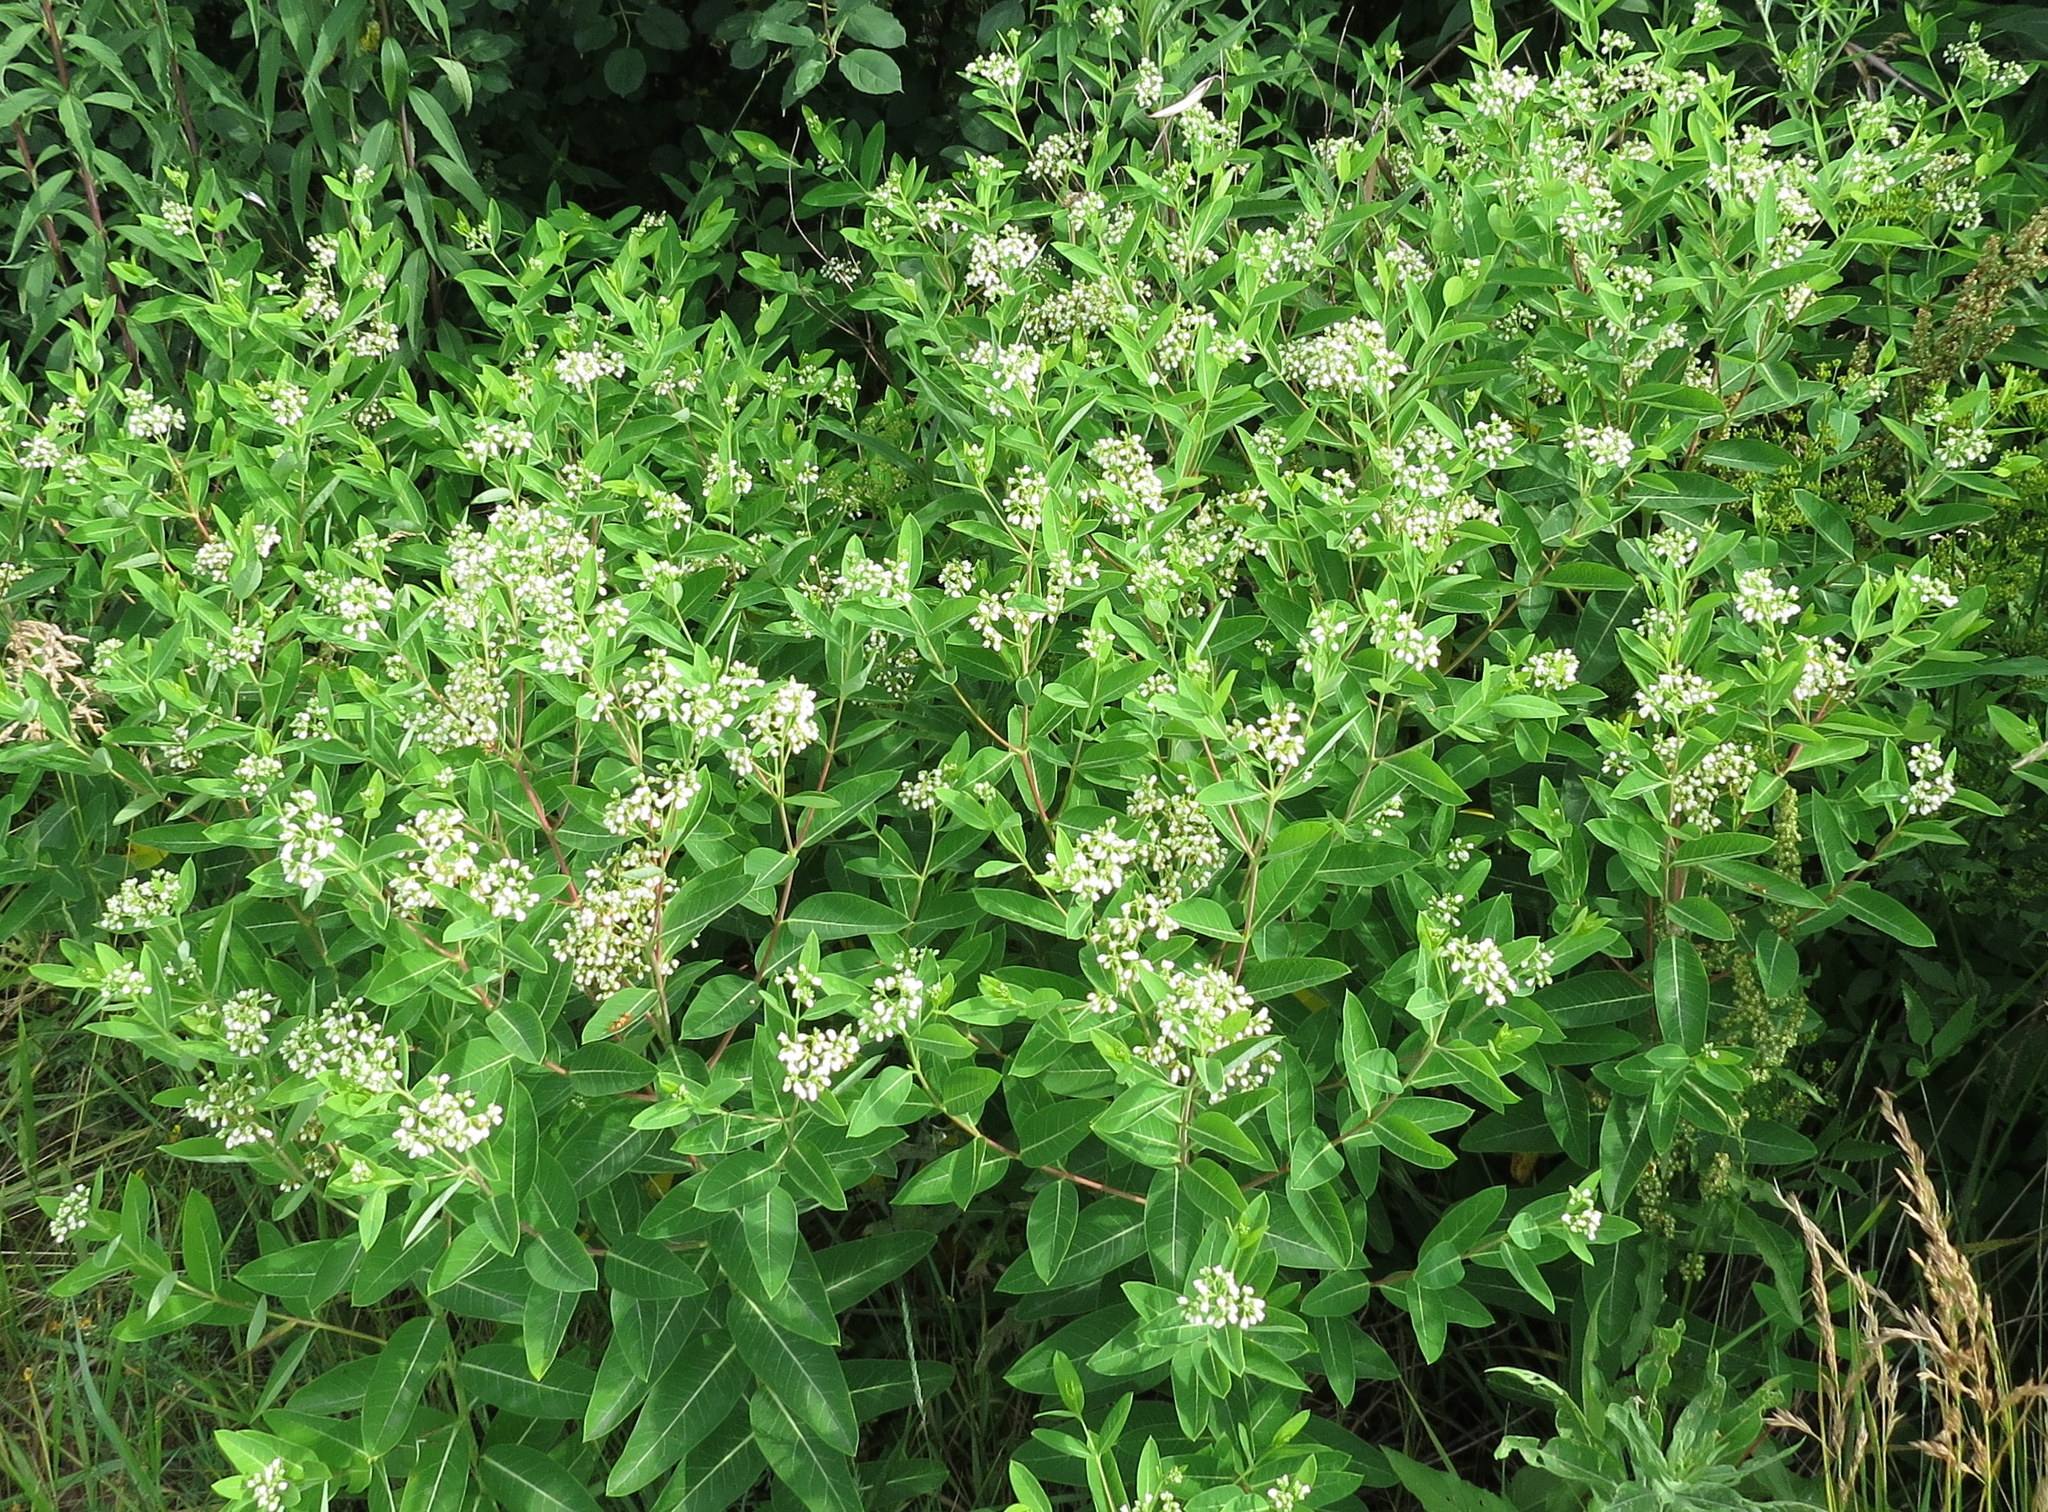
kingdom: Plantae
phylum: Tracheophyta
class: Magnoliopsida
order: Gentianales
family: Apocynaceae
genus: Apocynum
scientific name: Apocynum cannabinum
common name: Hemp dogbane
